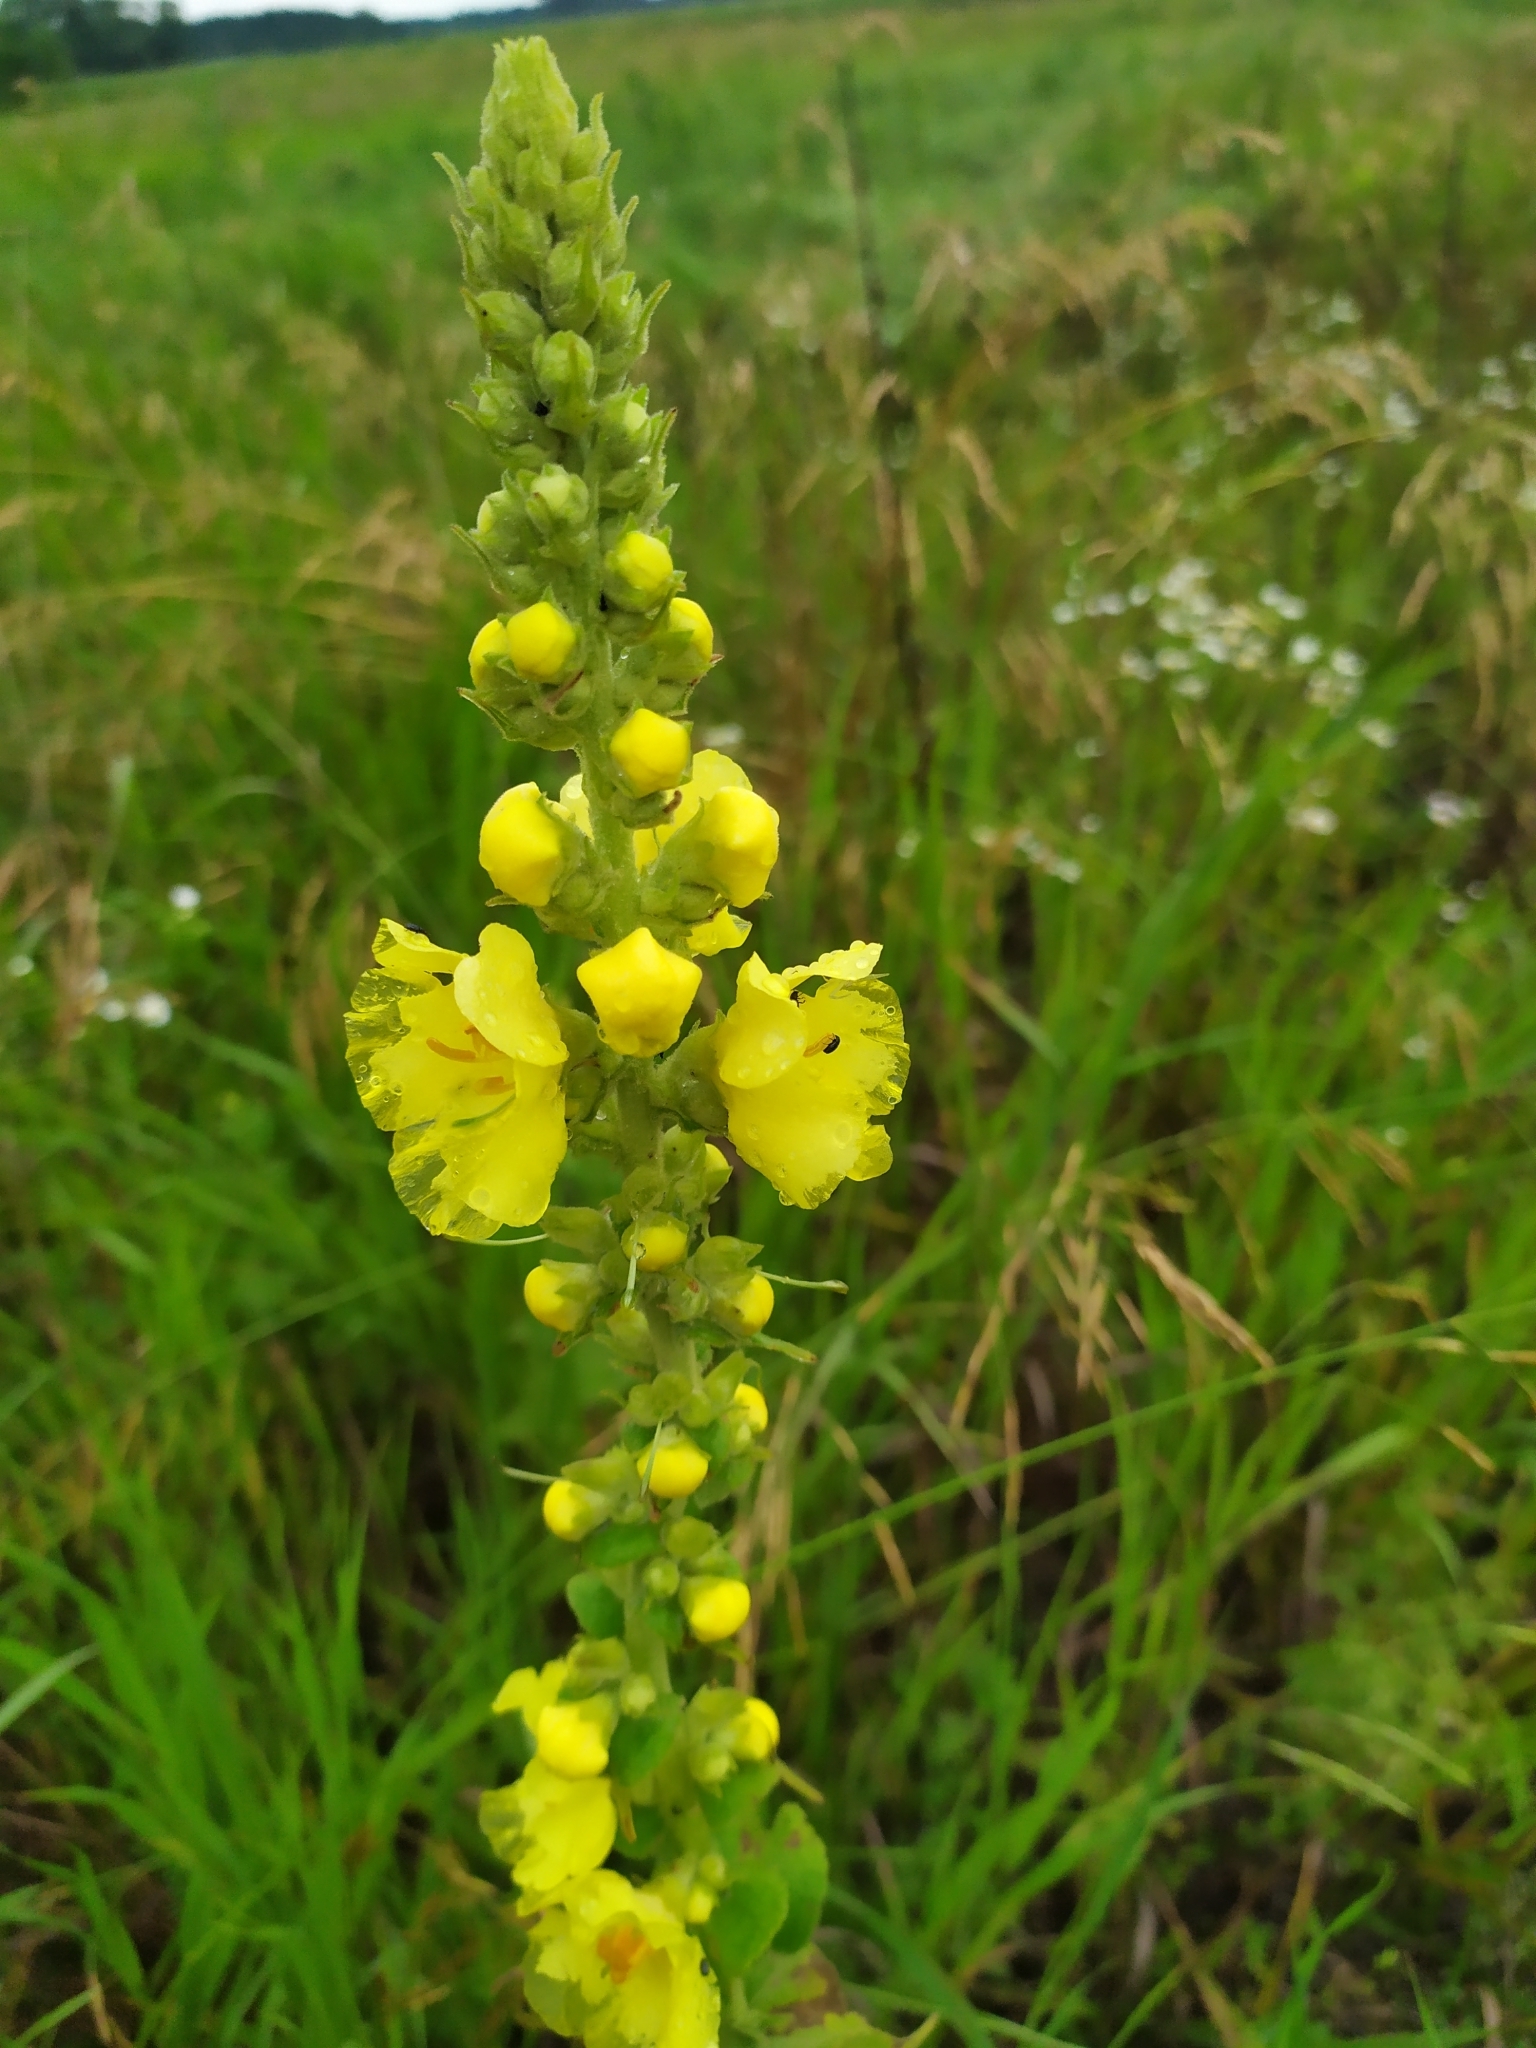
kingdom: Plantae
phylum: Tracheophyta
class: Magnoliopsida
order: Lamiales
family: Scrophulariaceae
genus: Verbascum
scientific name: Verbascum densiflorum
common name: Dense-flowered mullein
